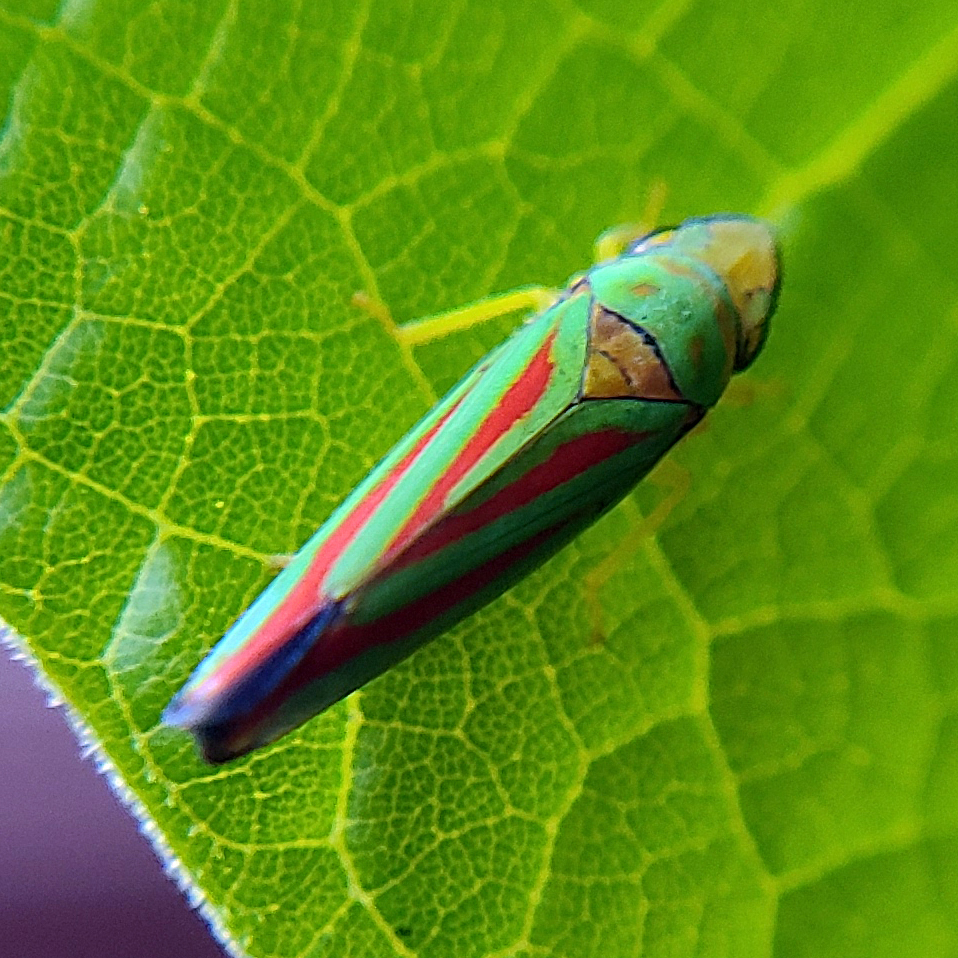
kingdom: Animalia
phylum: Arthropoda
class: Insecta
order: Hemiptera
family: Cicadellidae
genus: Graphocephala
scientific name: Graphocephala coccinea
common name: Candy-striped leafhopper
